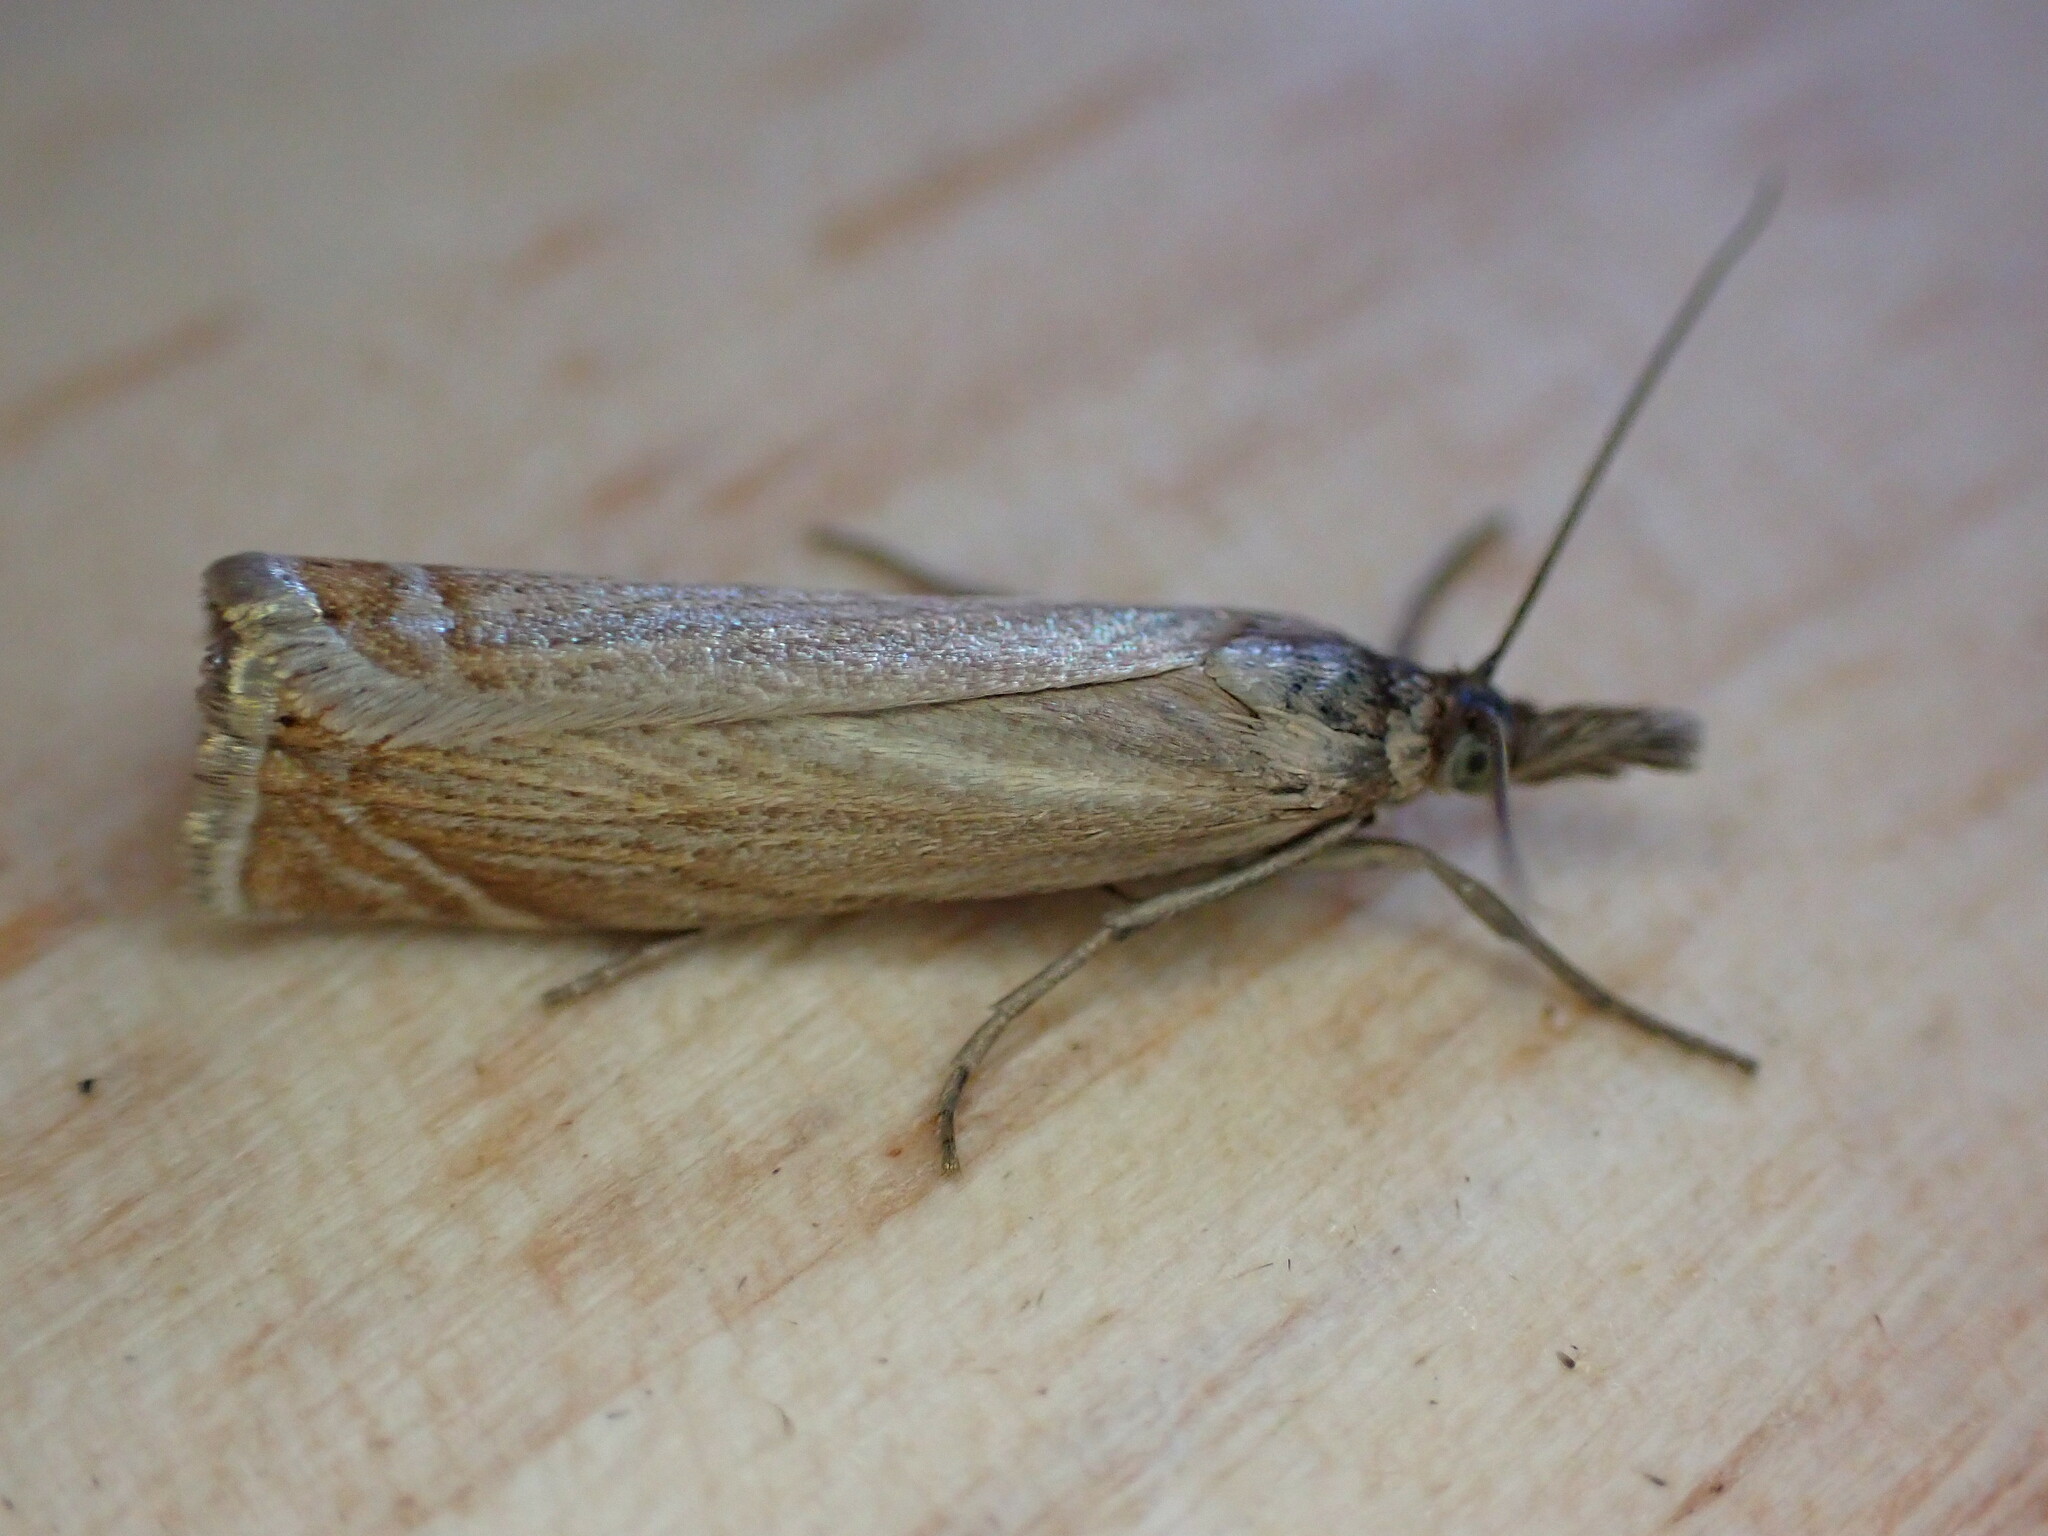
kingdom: Animalia
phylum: Arthropoda
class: Insecta
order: Lepidoptera
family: Crambidae
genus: Chrysoteuchia
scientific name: Chrysoteuchia culmella
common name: Garden grass-veneer
